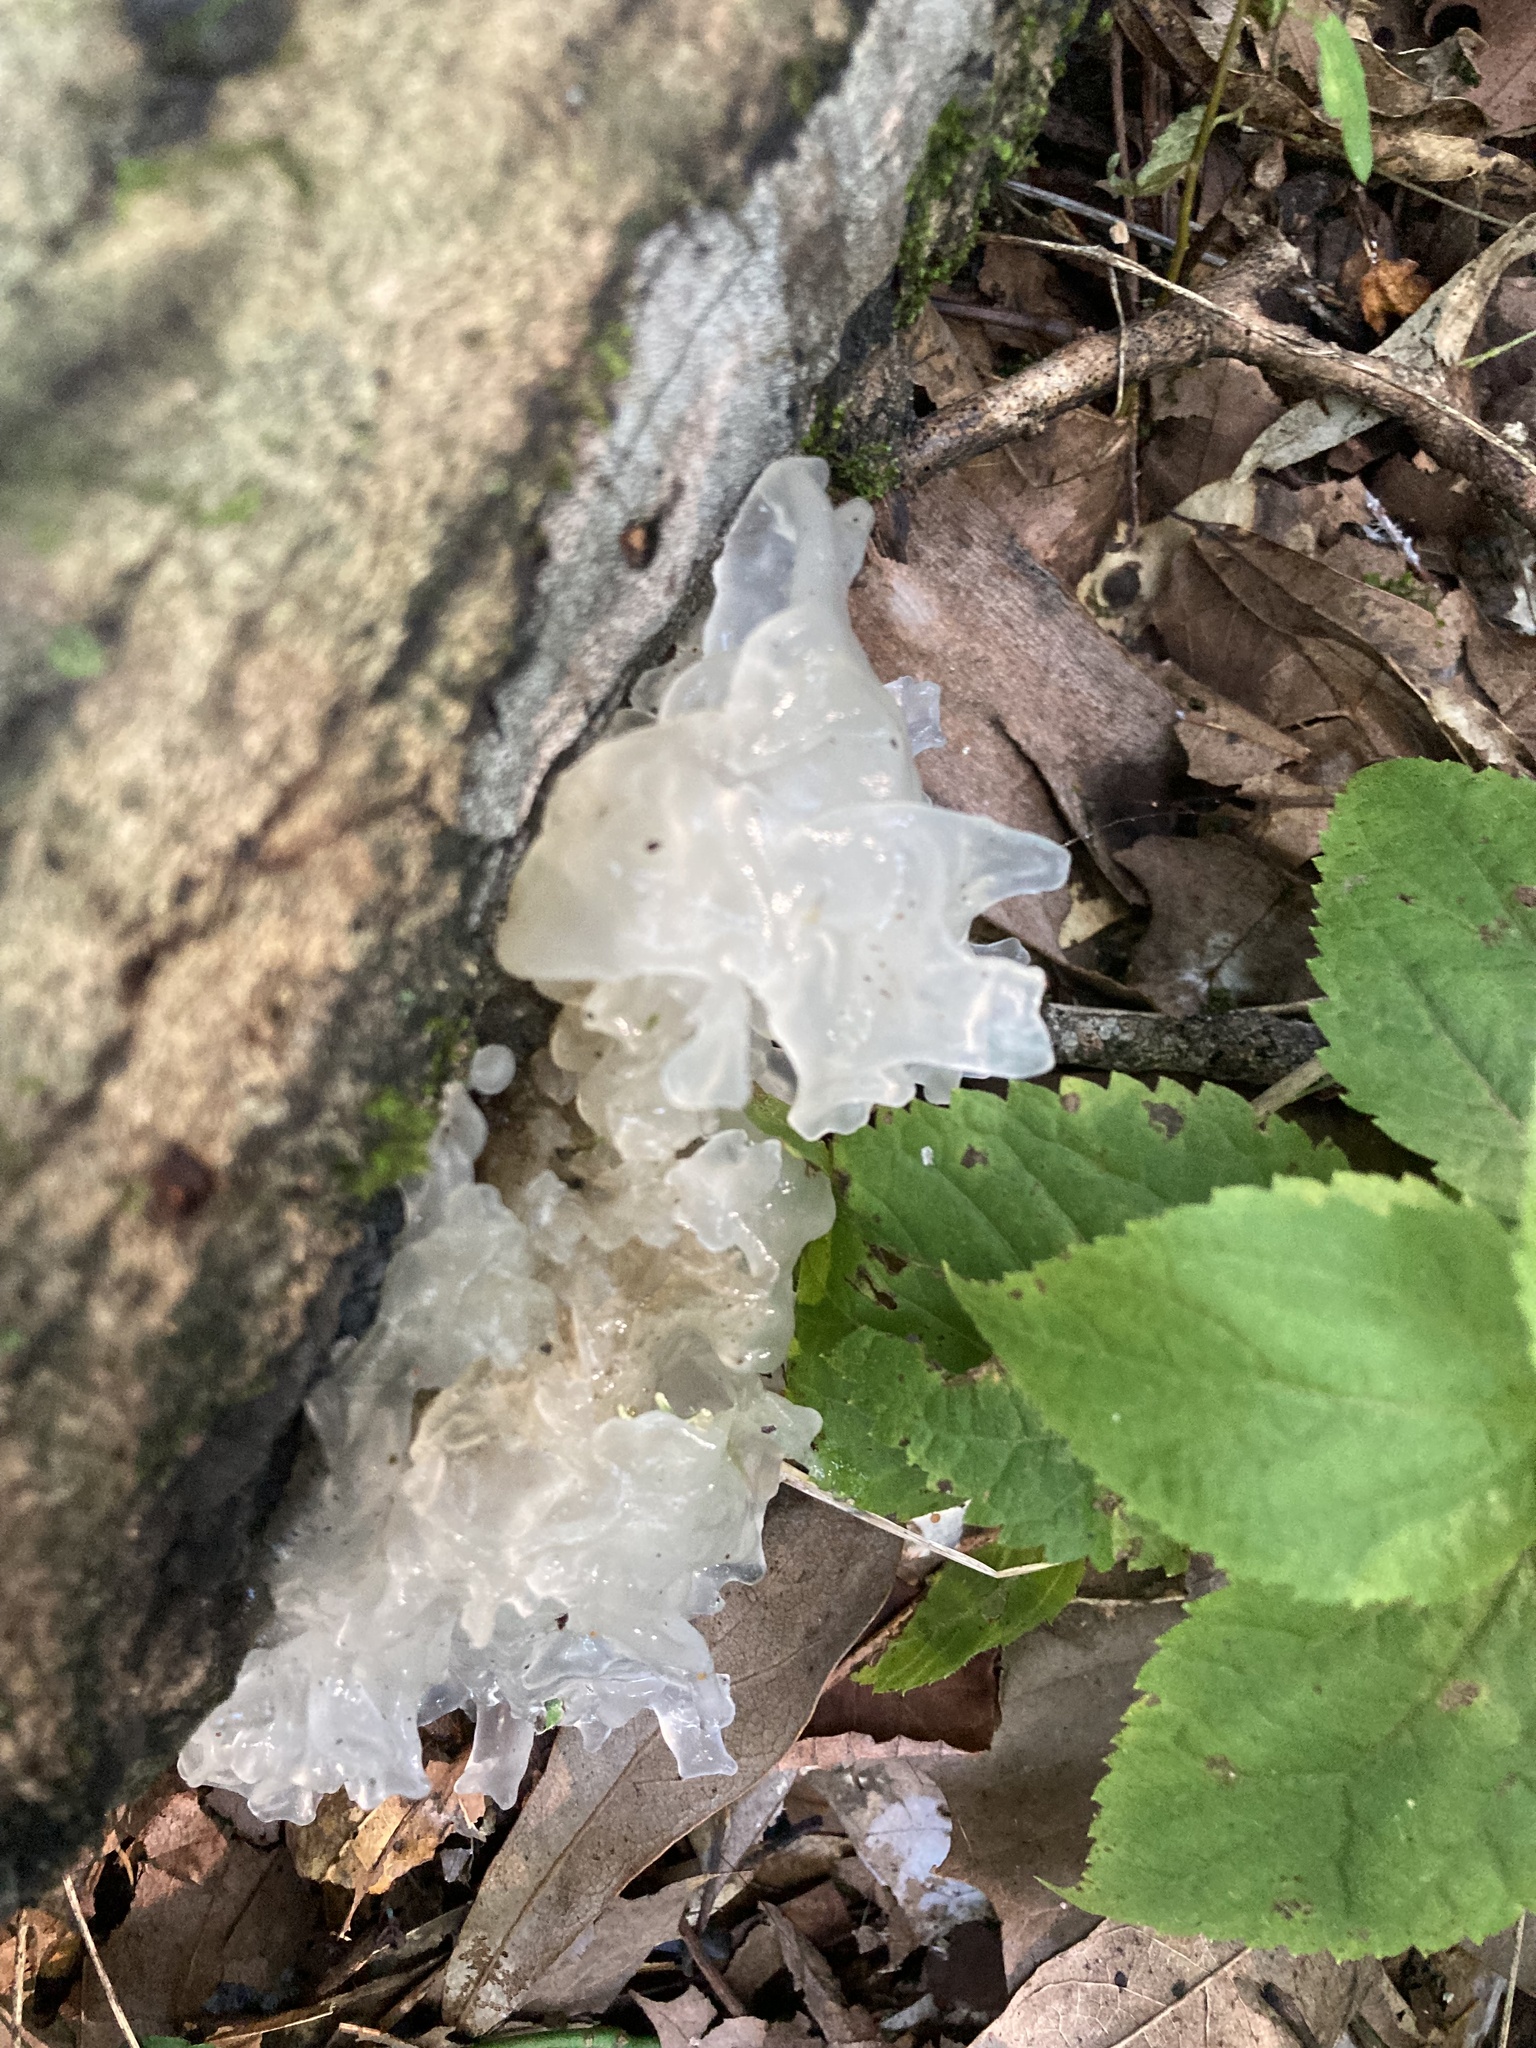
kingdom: Fungi
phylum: Basidiomycota
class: Tremellomycetes
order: Tremellales
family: Tremellaceae
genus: Tremella
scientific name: Tremella fuciformis
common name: Snow fungus
